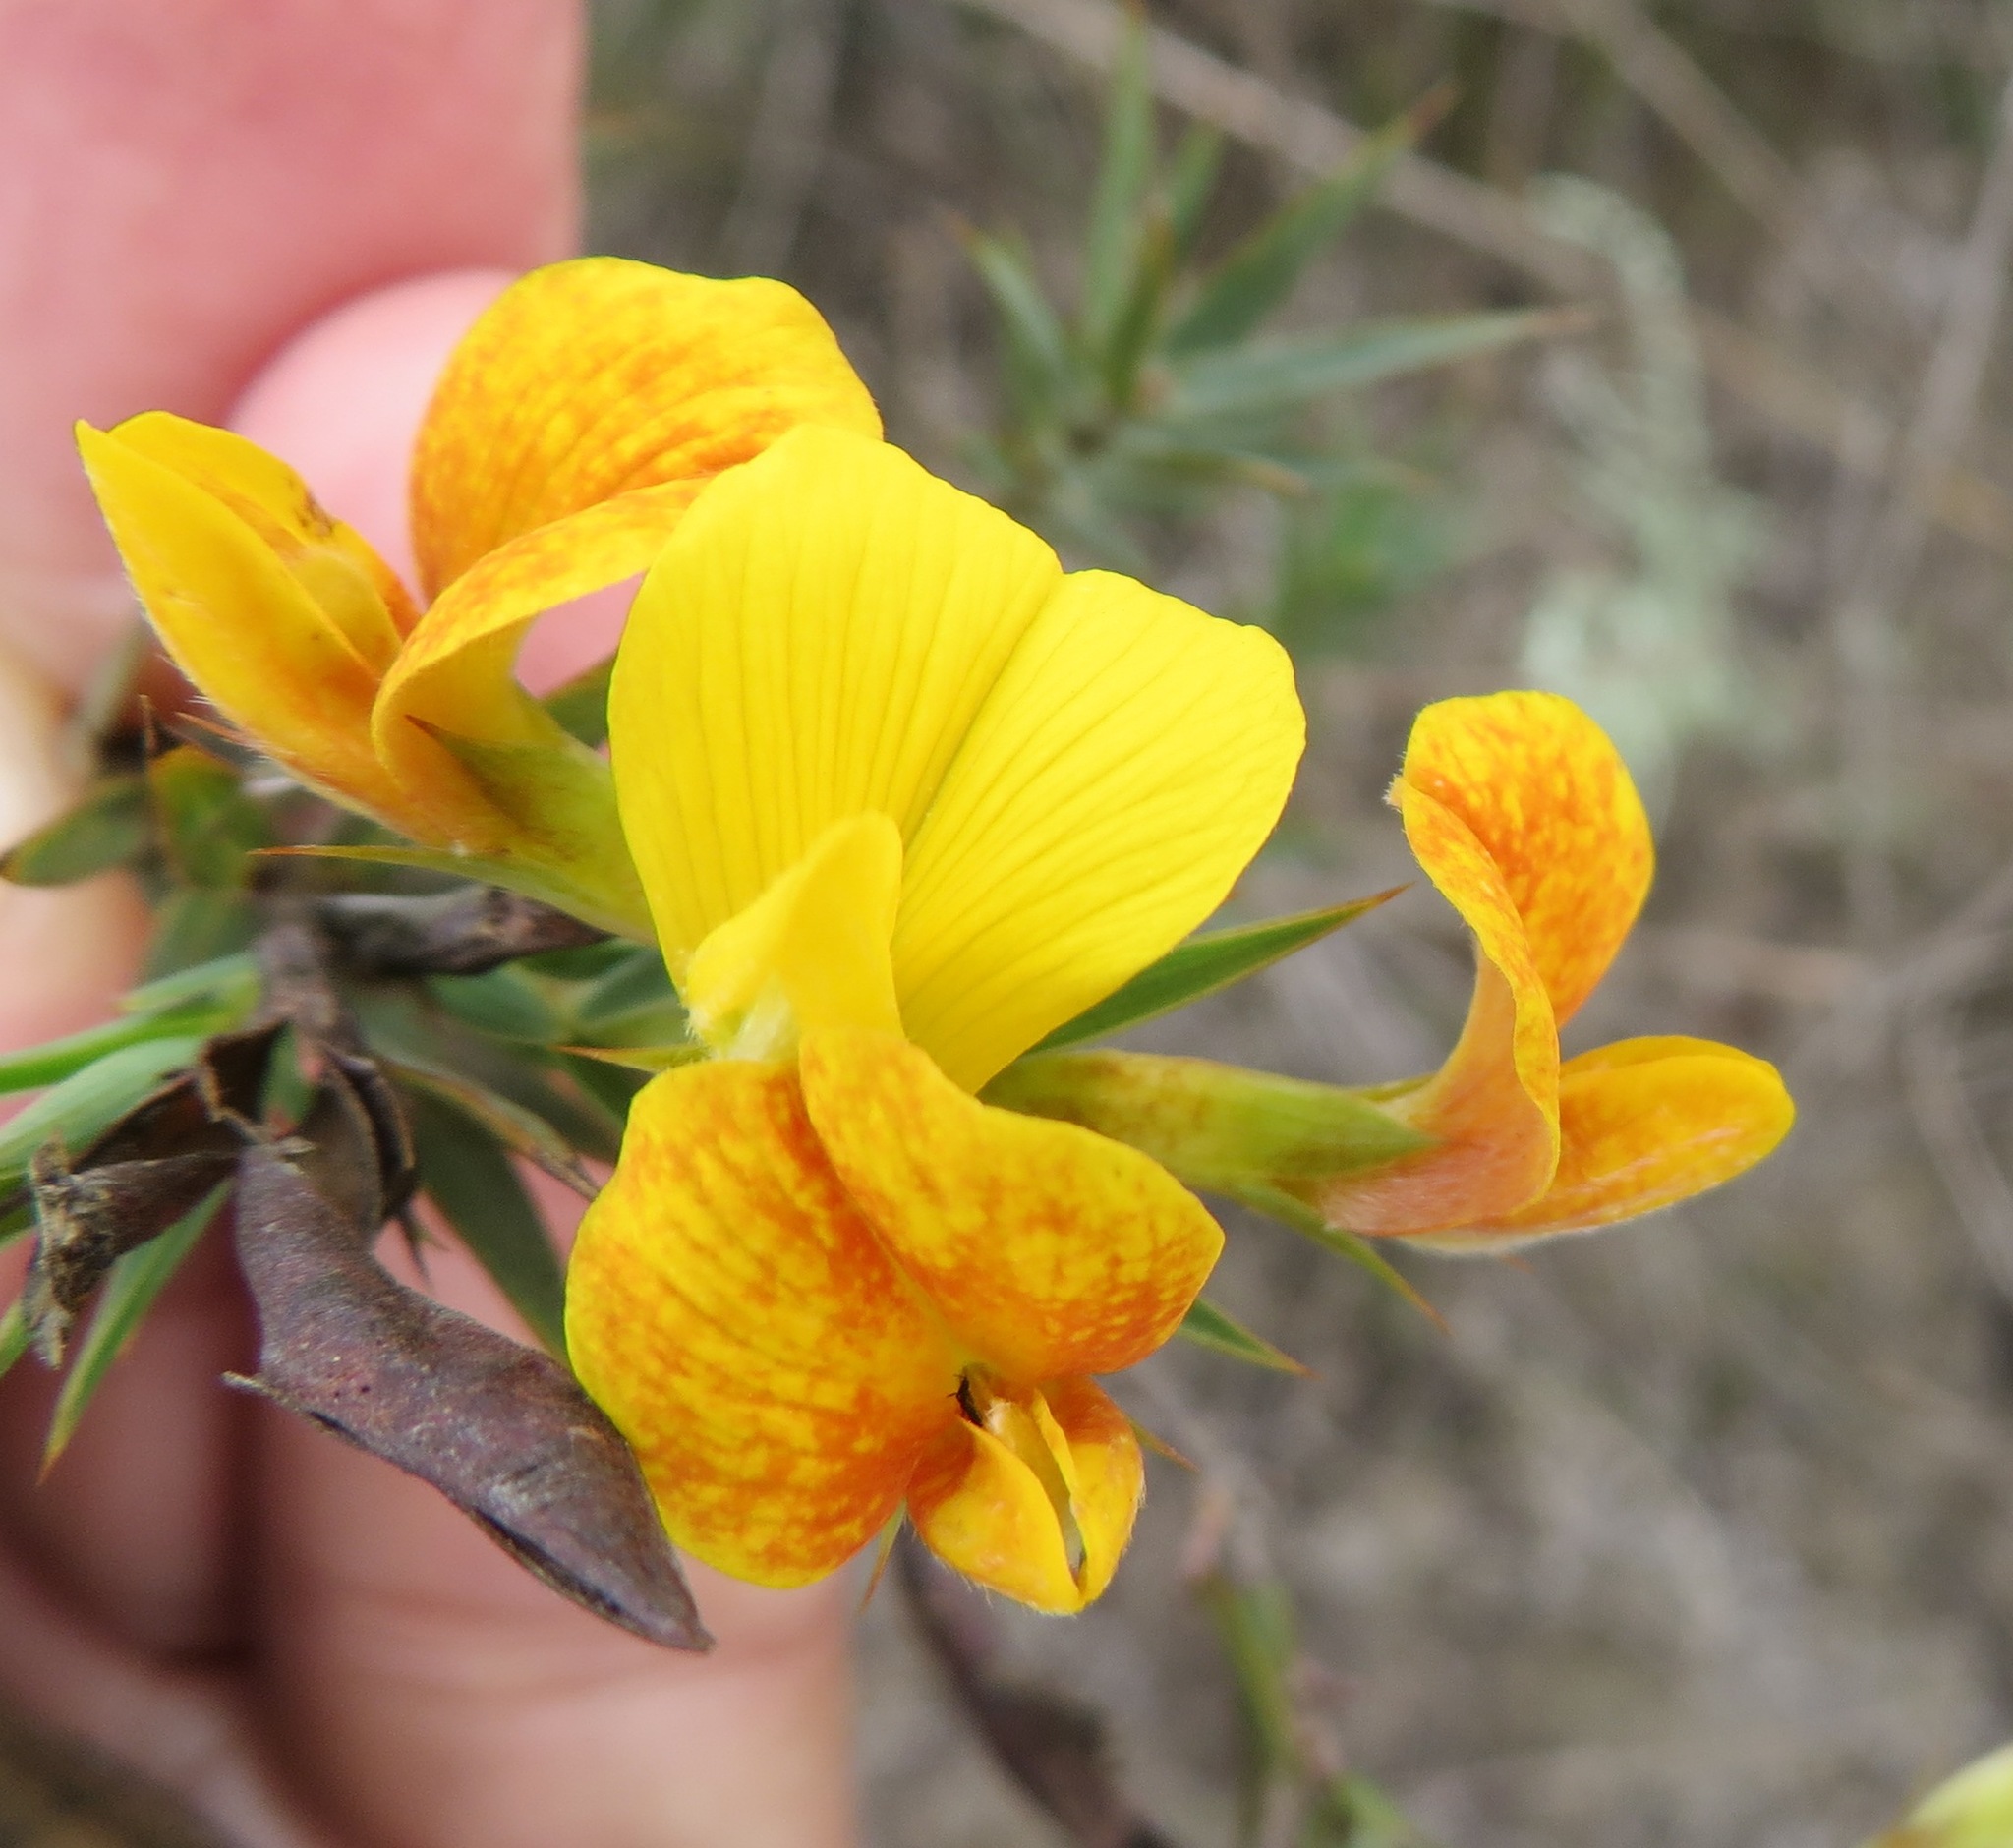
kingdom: Plantae
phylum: Tracheophyta
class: Magnoliopsida
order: Fabales
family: Fabaceae
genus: Aspalathus
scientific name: Aspalathus angustifolia
